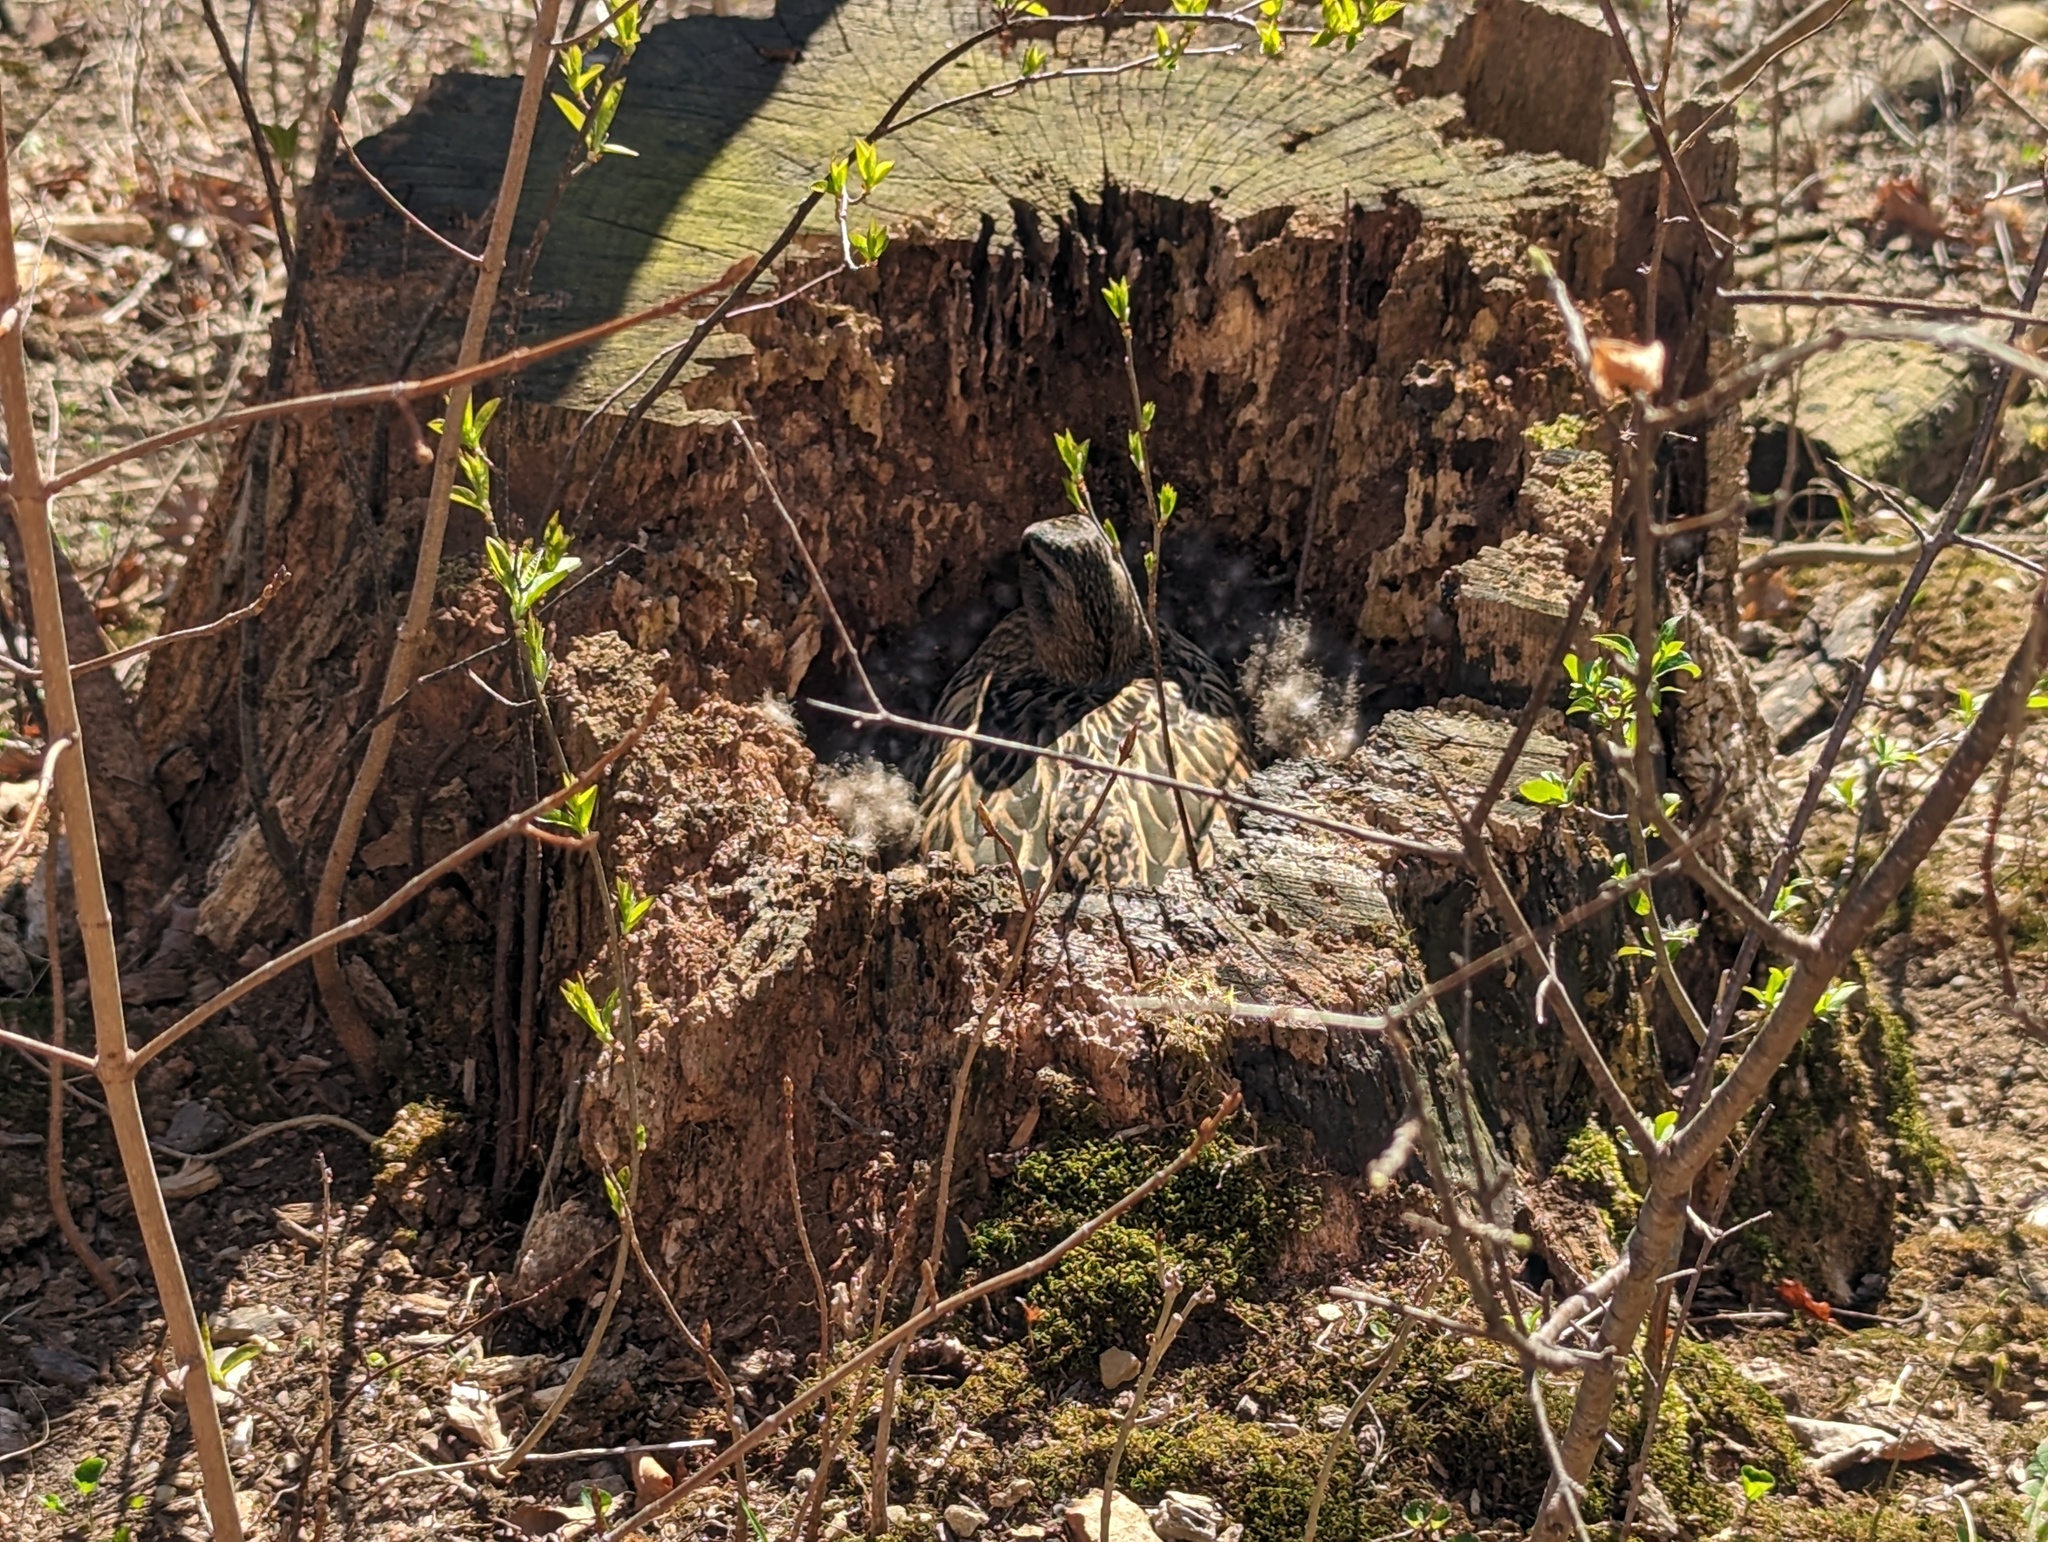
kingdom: Animalia
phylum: Chordata
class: Aves
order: Anseriformes
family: Anatidae
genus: Anas
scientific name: Anas platyrhynchos
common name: Mallard
